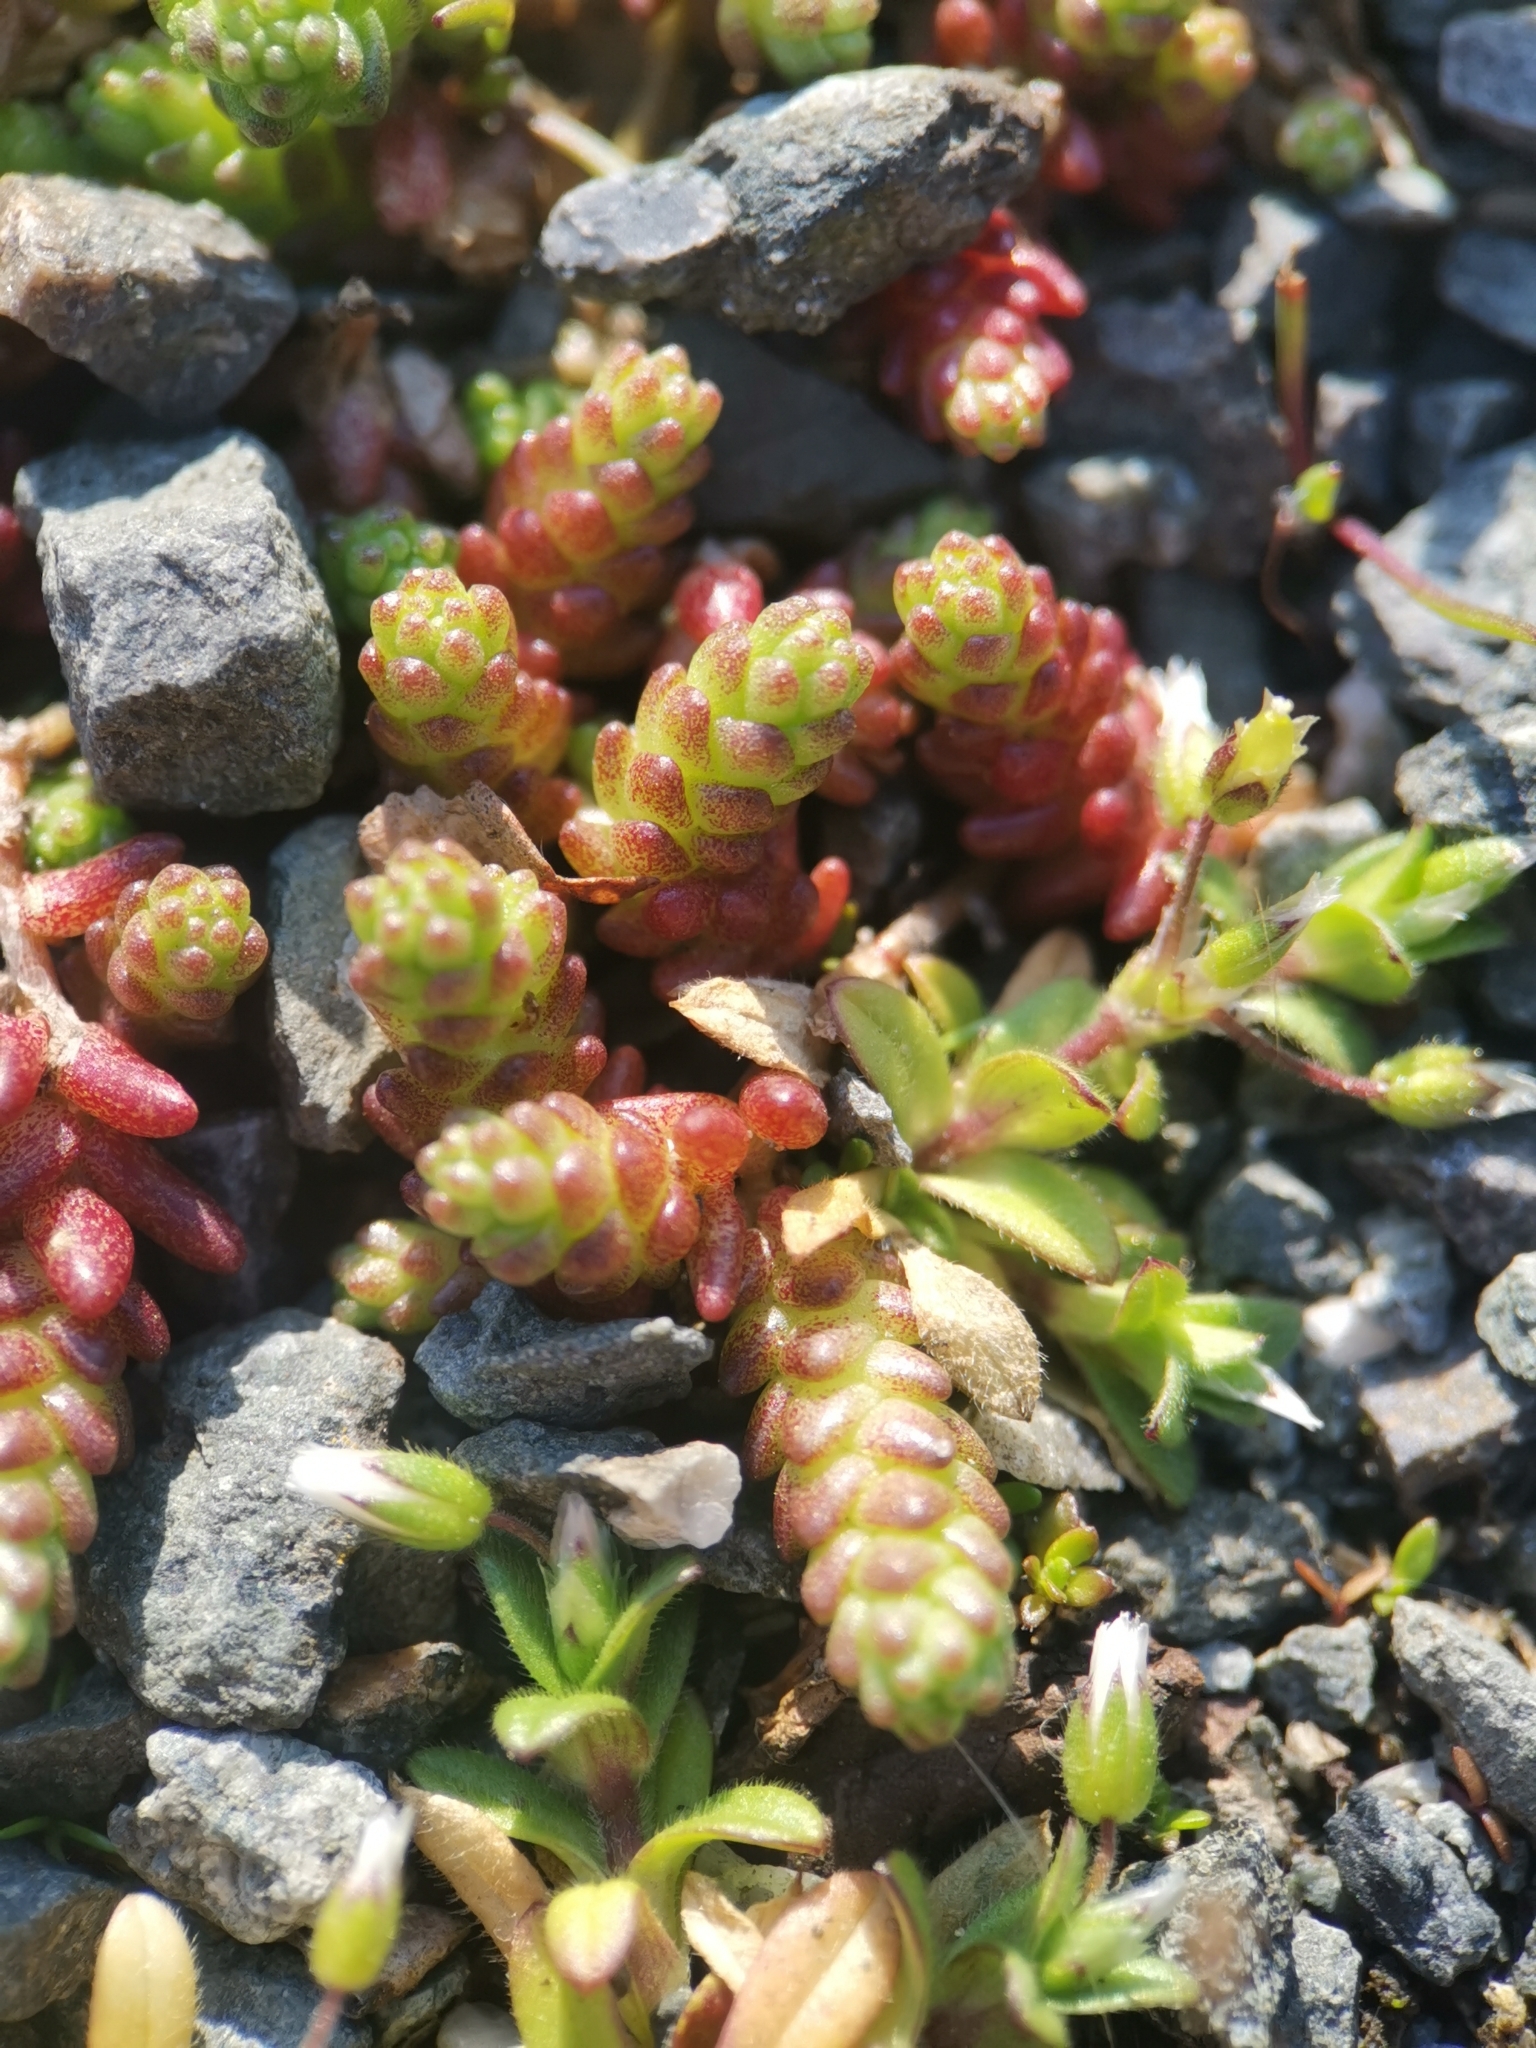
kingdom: Plantae
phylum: Tracheophyta
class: Magnoliopsida
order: Saxifragales
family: Crassulaceae
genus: Sedum
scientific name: Sedum acre
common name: Biting stonecrop
